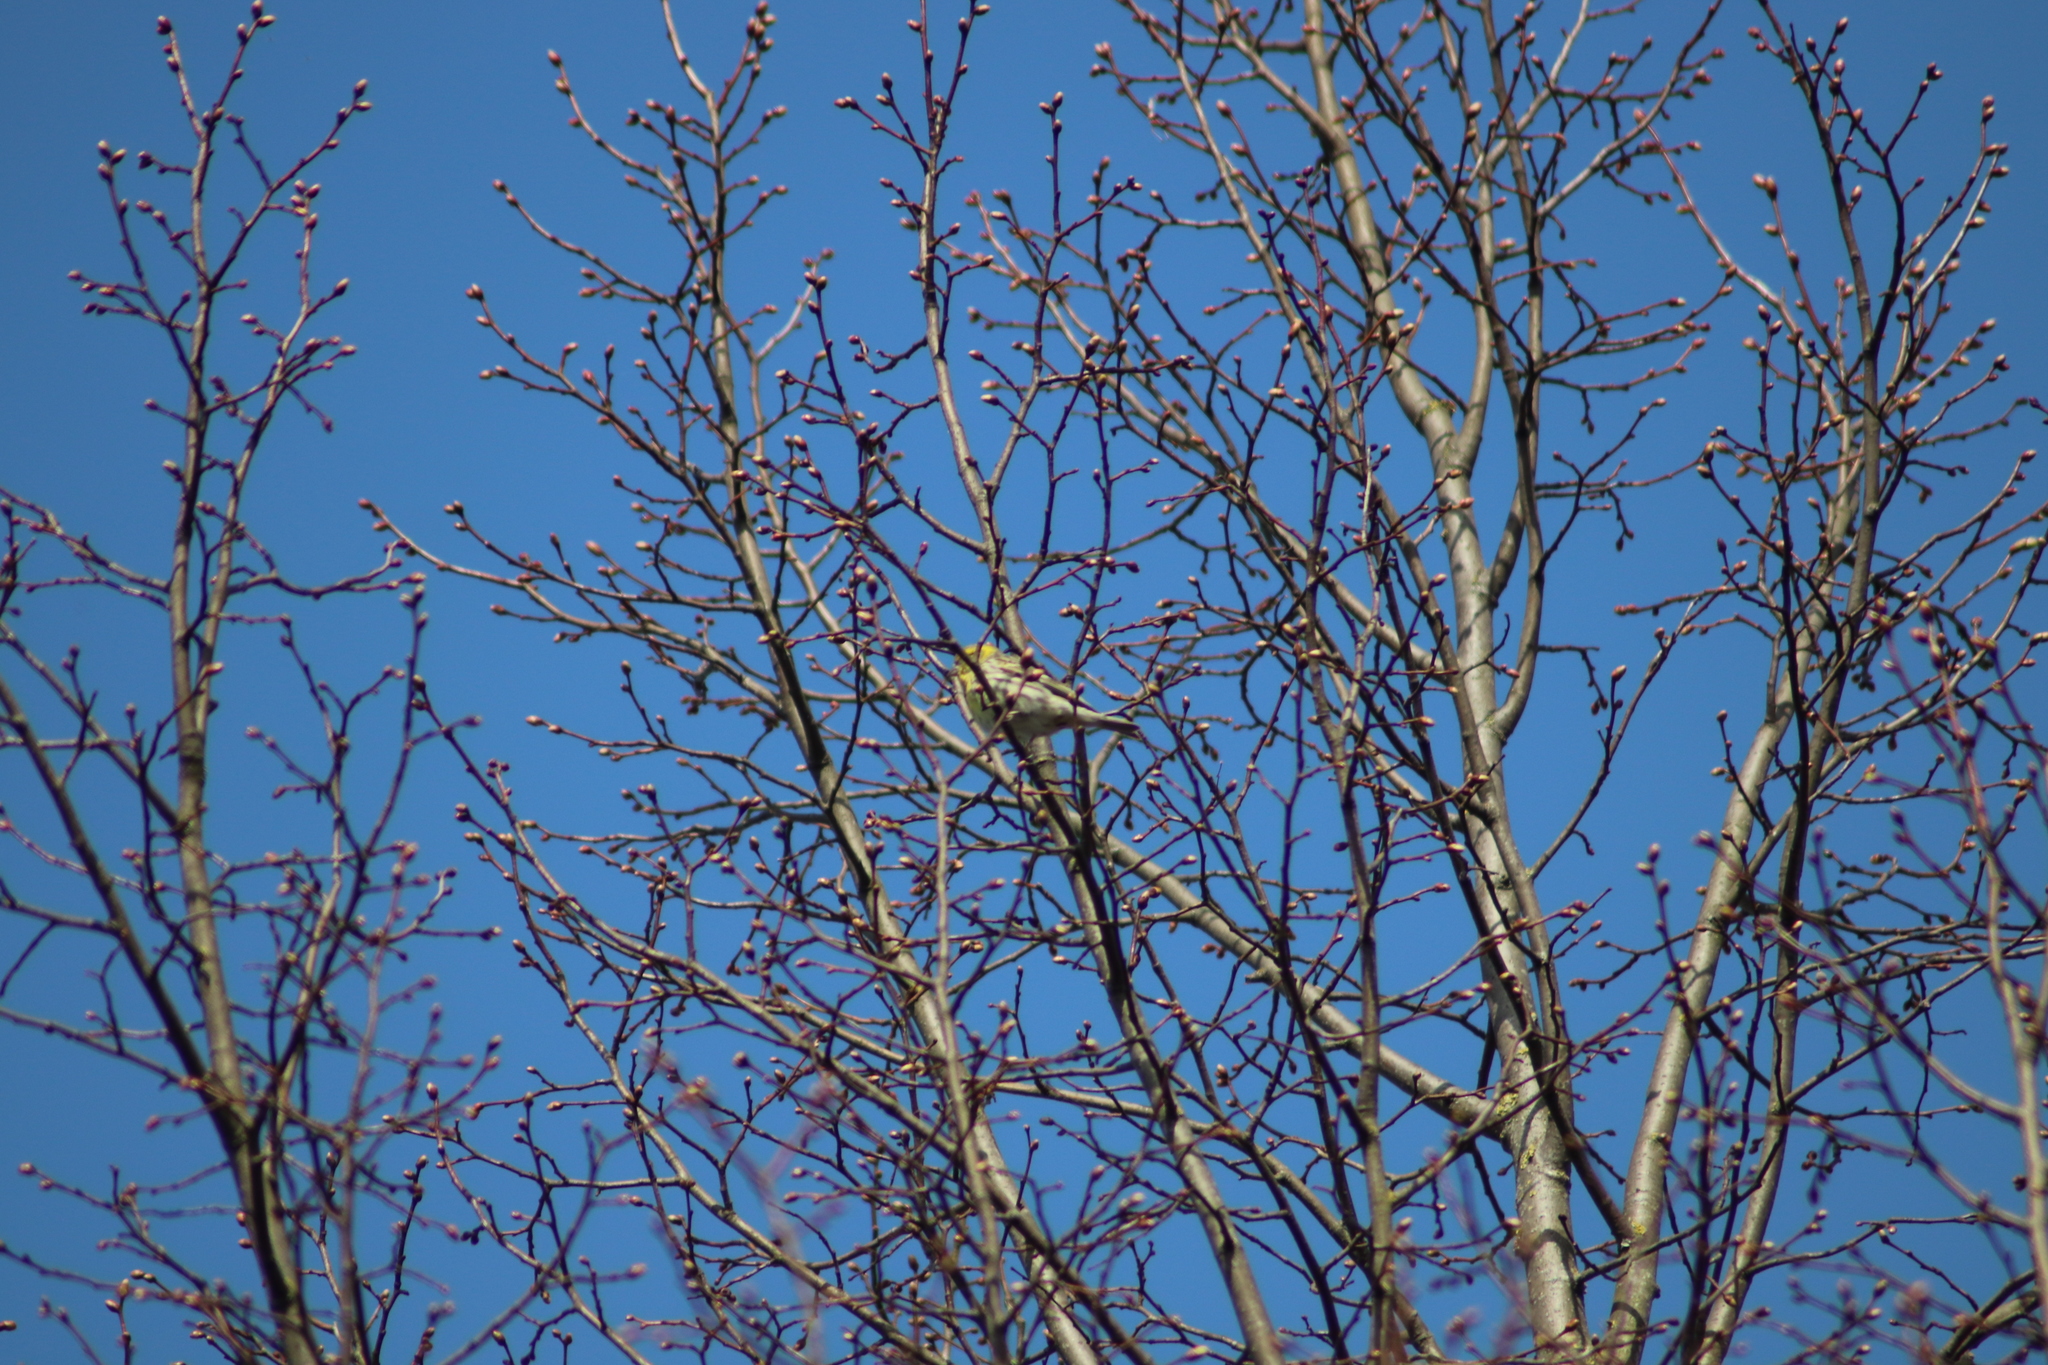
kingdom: Animalia
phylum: Chordata
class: Aves
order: Passeriformes
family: Fringillidae
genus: Serinus
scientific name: Serinus serinus
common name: European serin
